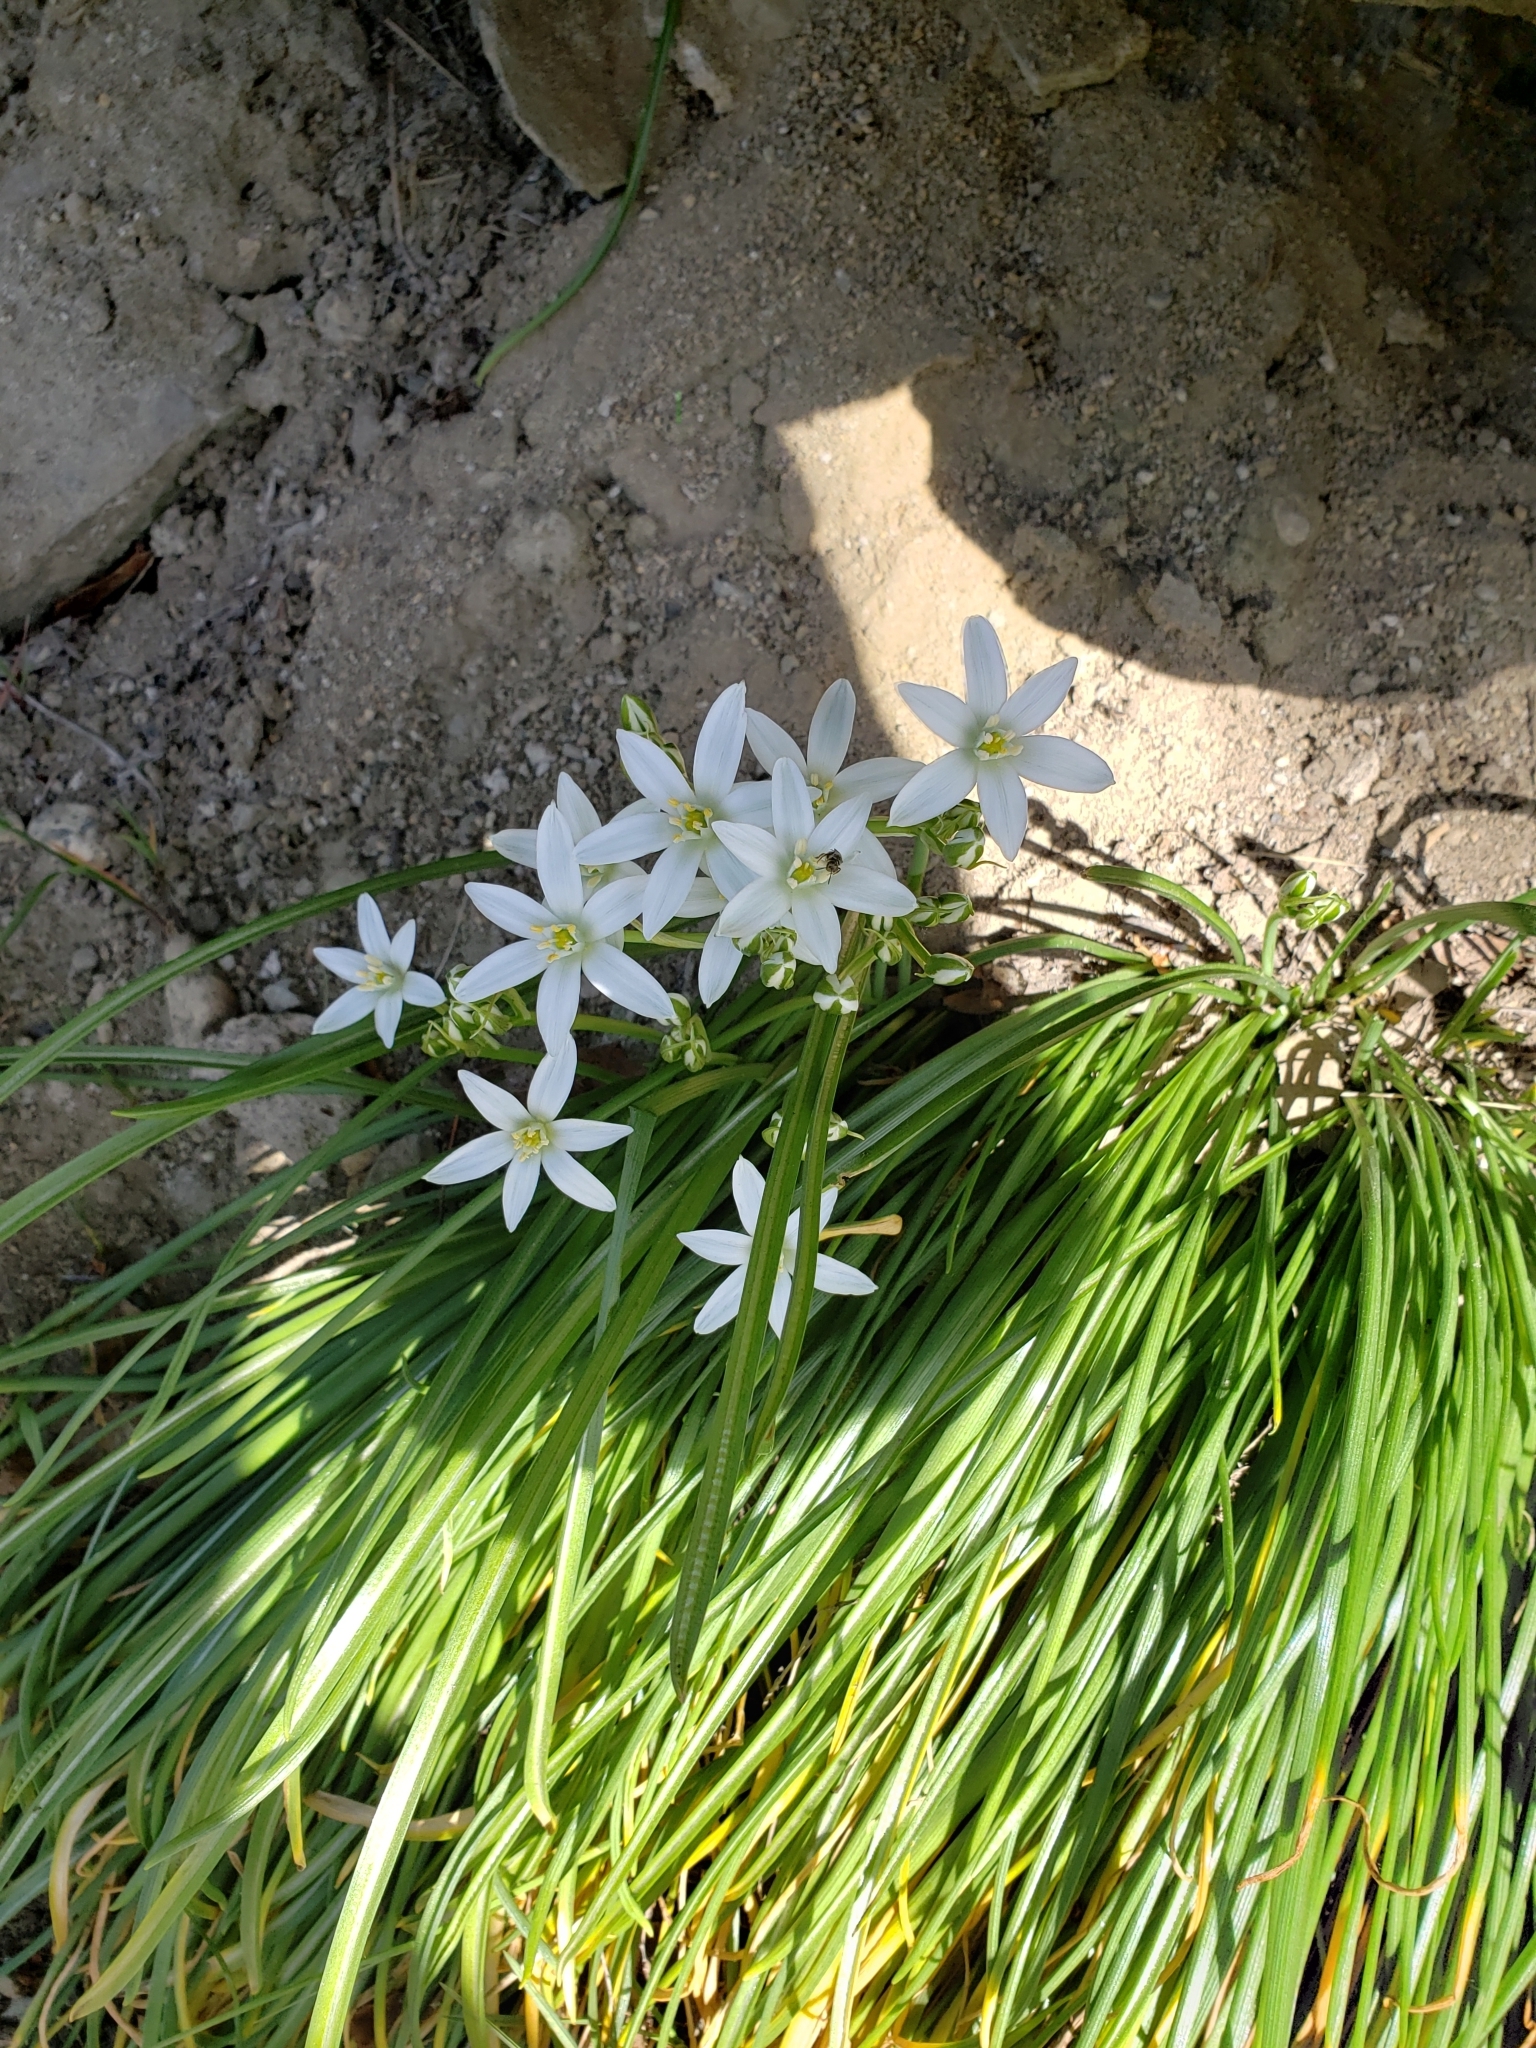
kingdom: Plantae
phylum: Tracheophyta
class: Liliopsida
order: Asparagales
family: Asparagaceae
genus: Ornithogalum
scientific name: Ornithogalum umbellatum
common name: Garden star-of-bethlehem
